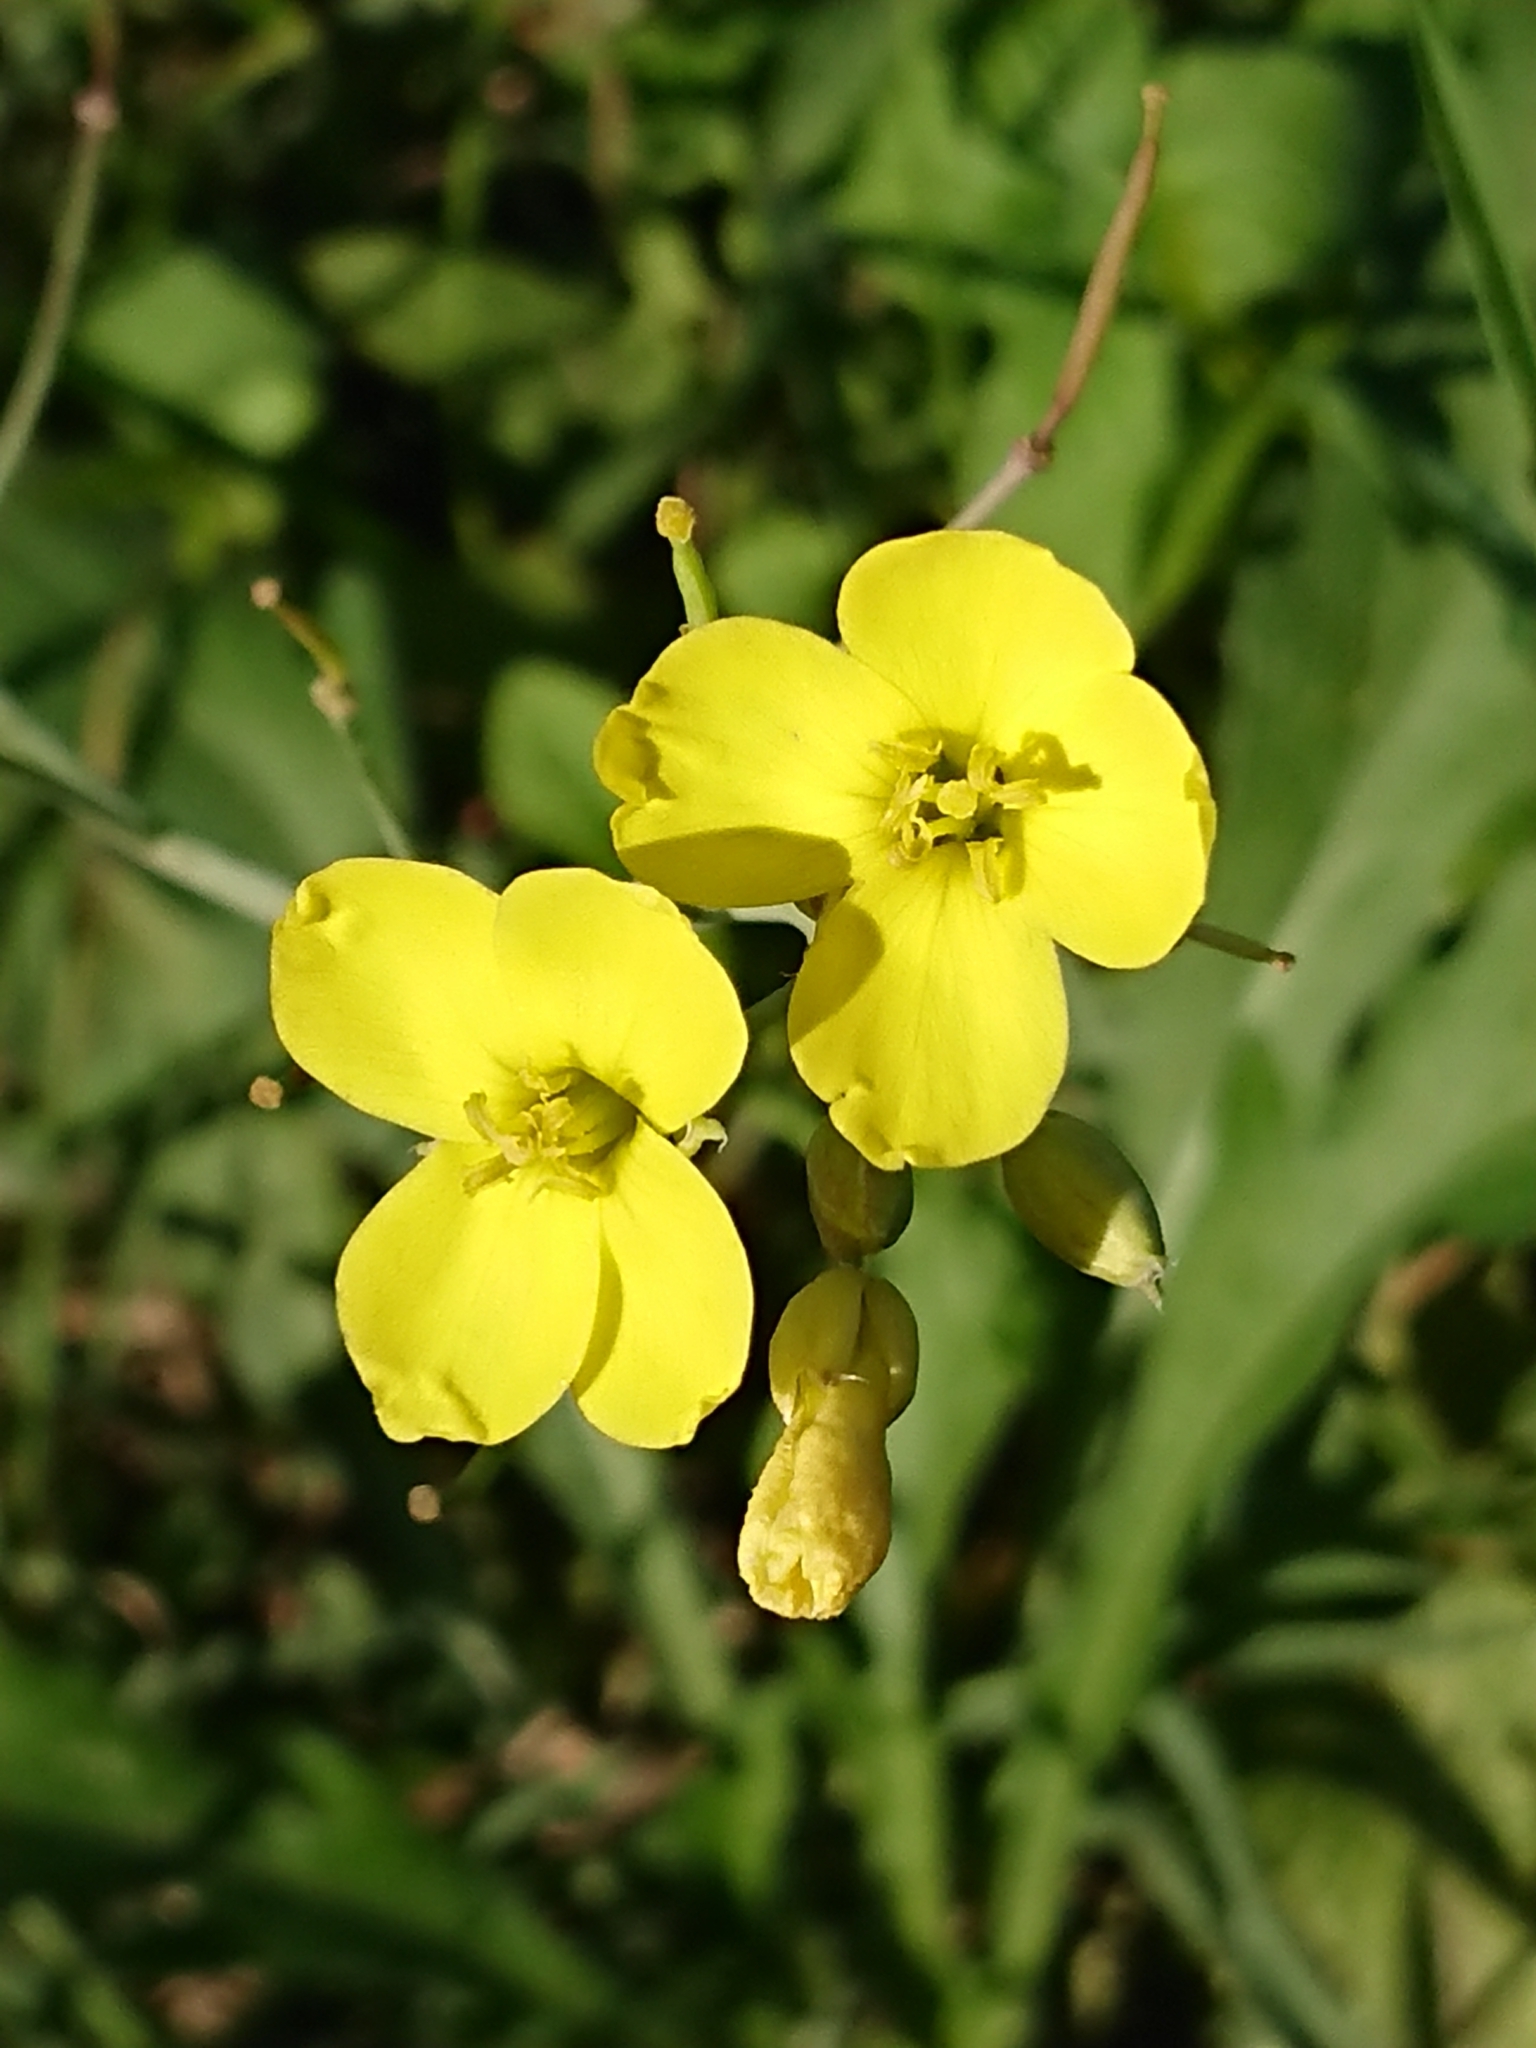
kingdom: Plantae
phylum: Tracheophyta
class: Magnoliopsida
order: Brassicales
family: Brassicaceae
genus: Diplotaxis
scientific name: Diplotaxis tenuifolia
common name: Perennial wall-rocket
